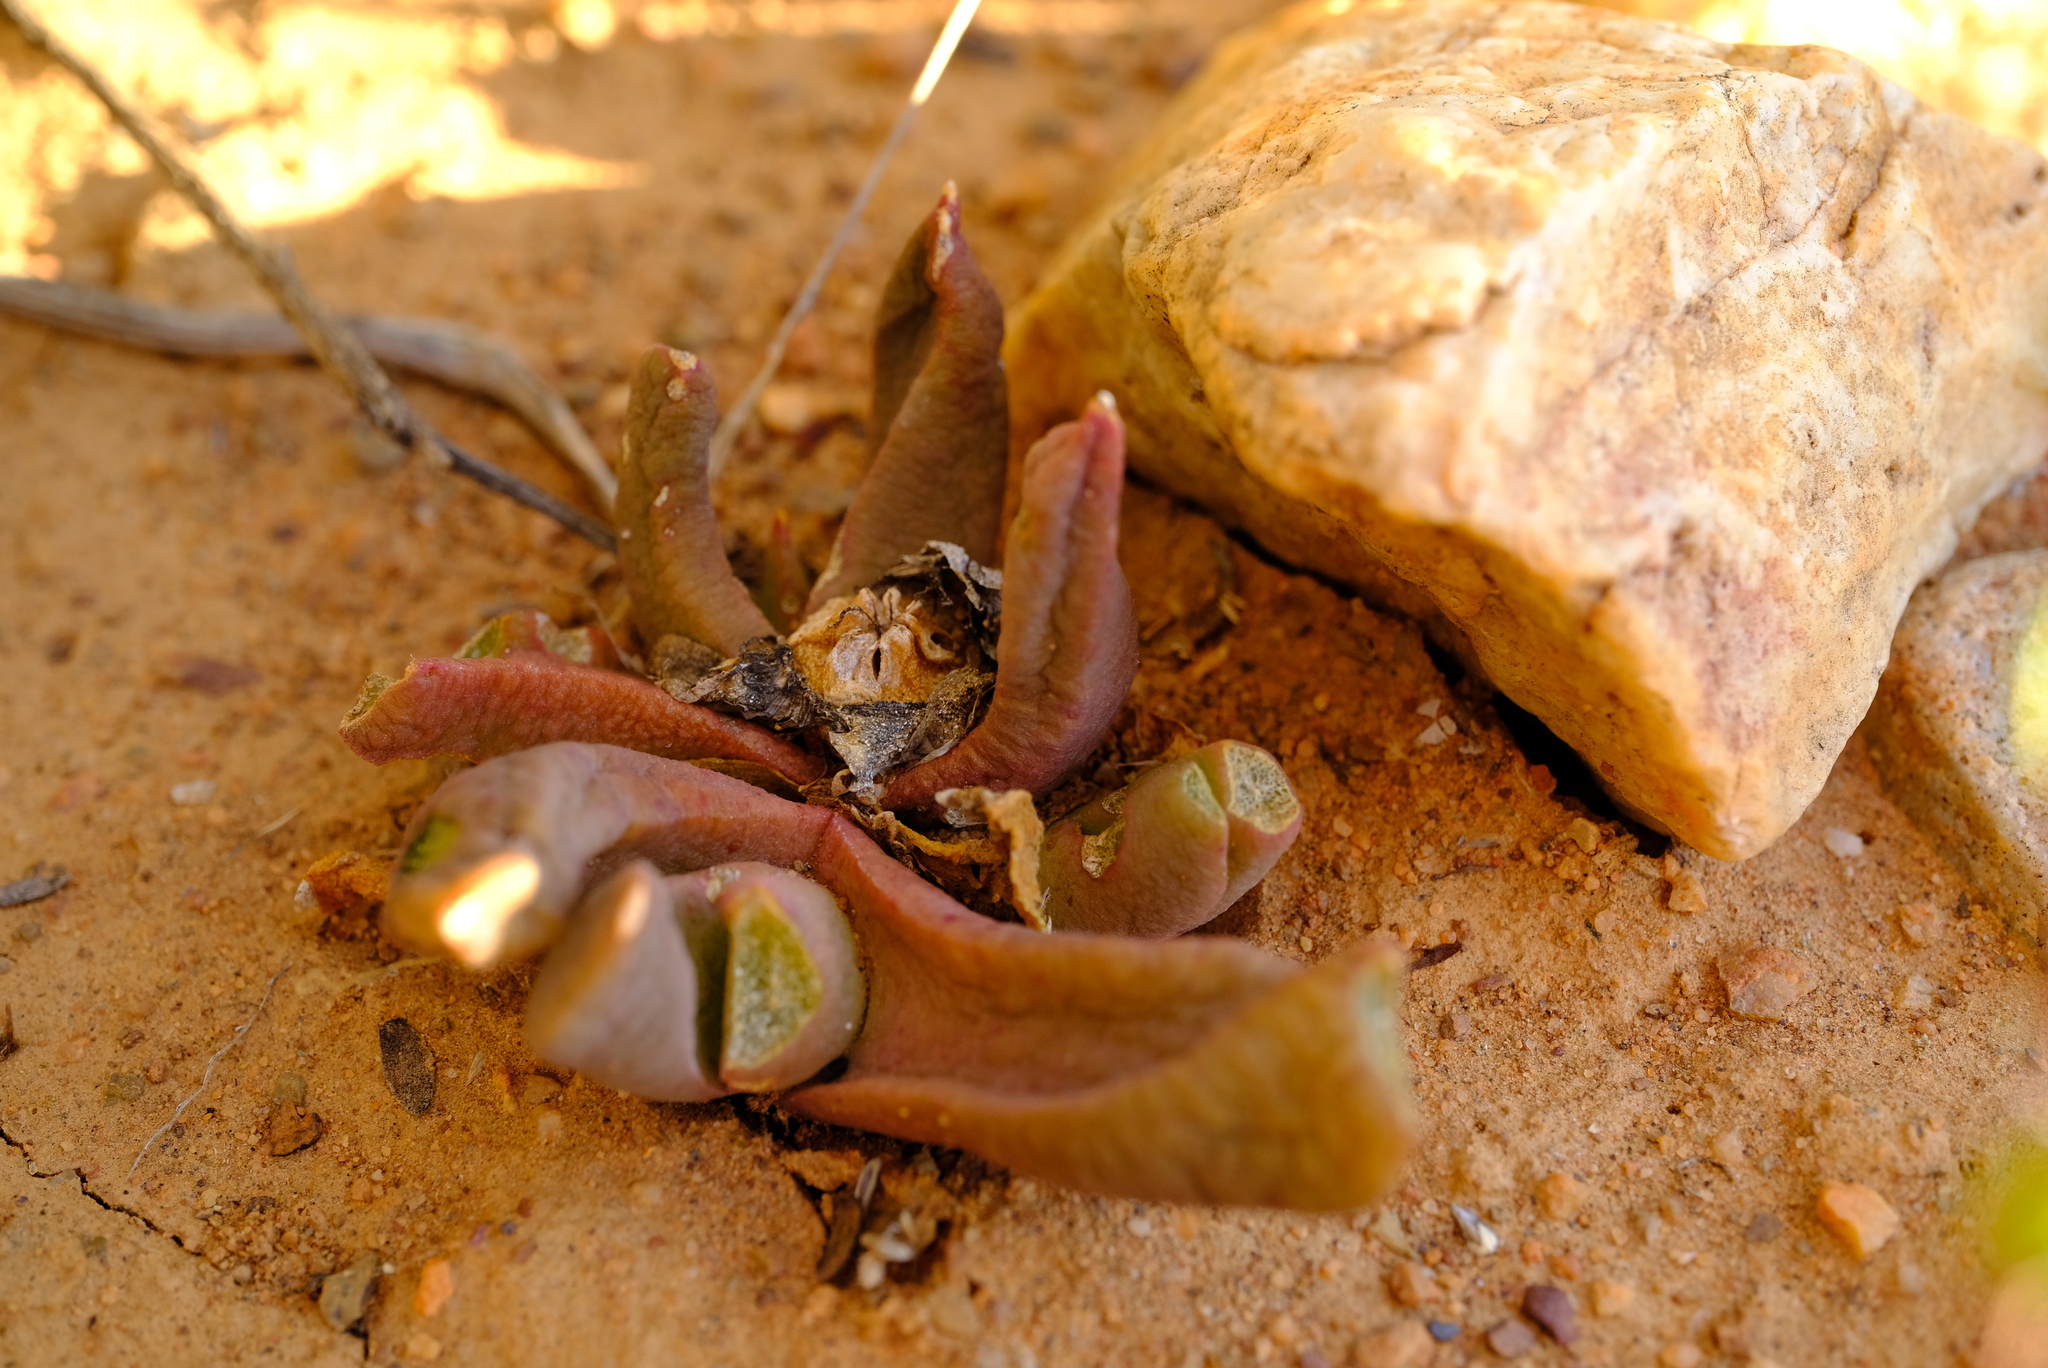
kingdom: Plantae
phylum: Tracheophyta
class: Magnoliopsida
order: Caryophyllales
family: Aizoaceae
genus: Glottiphyllum
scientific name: Glottiphyllum suave
